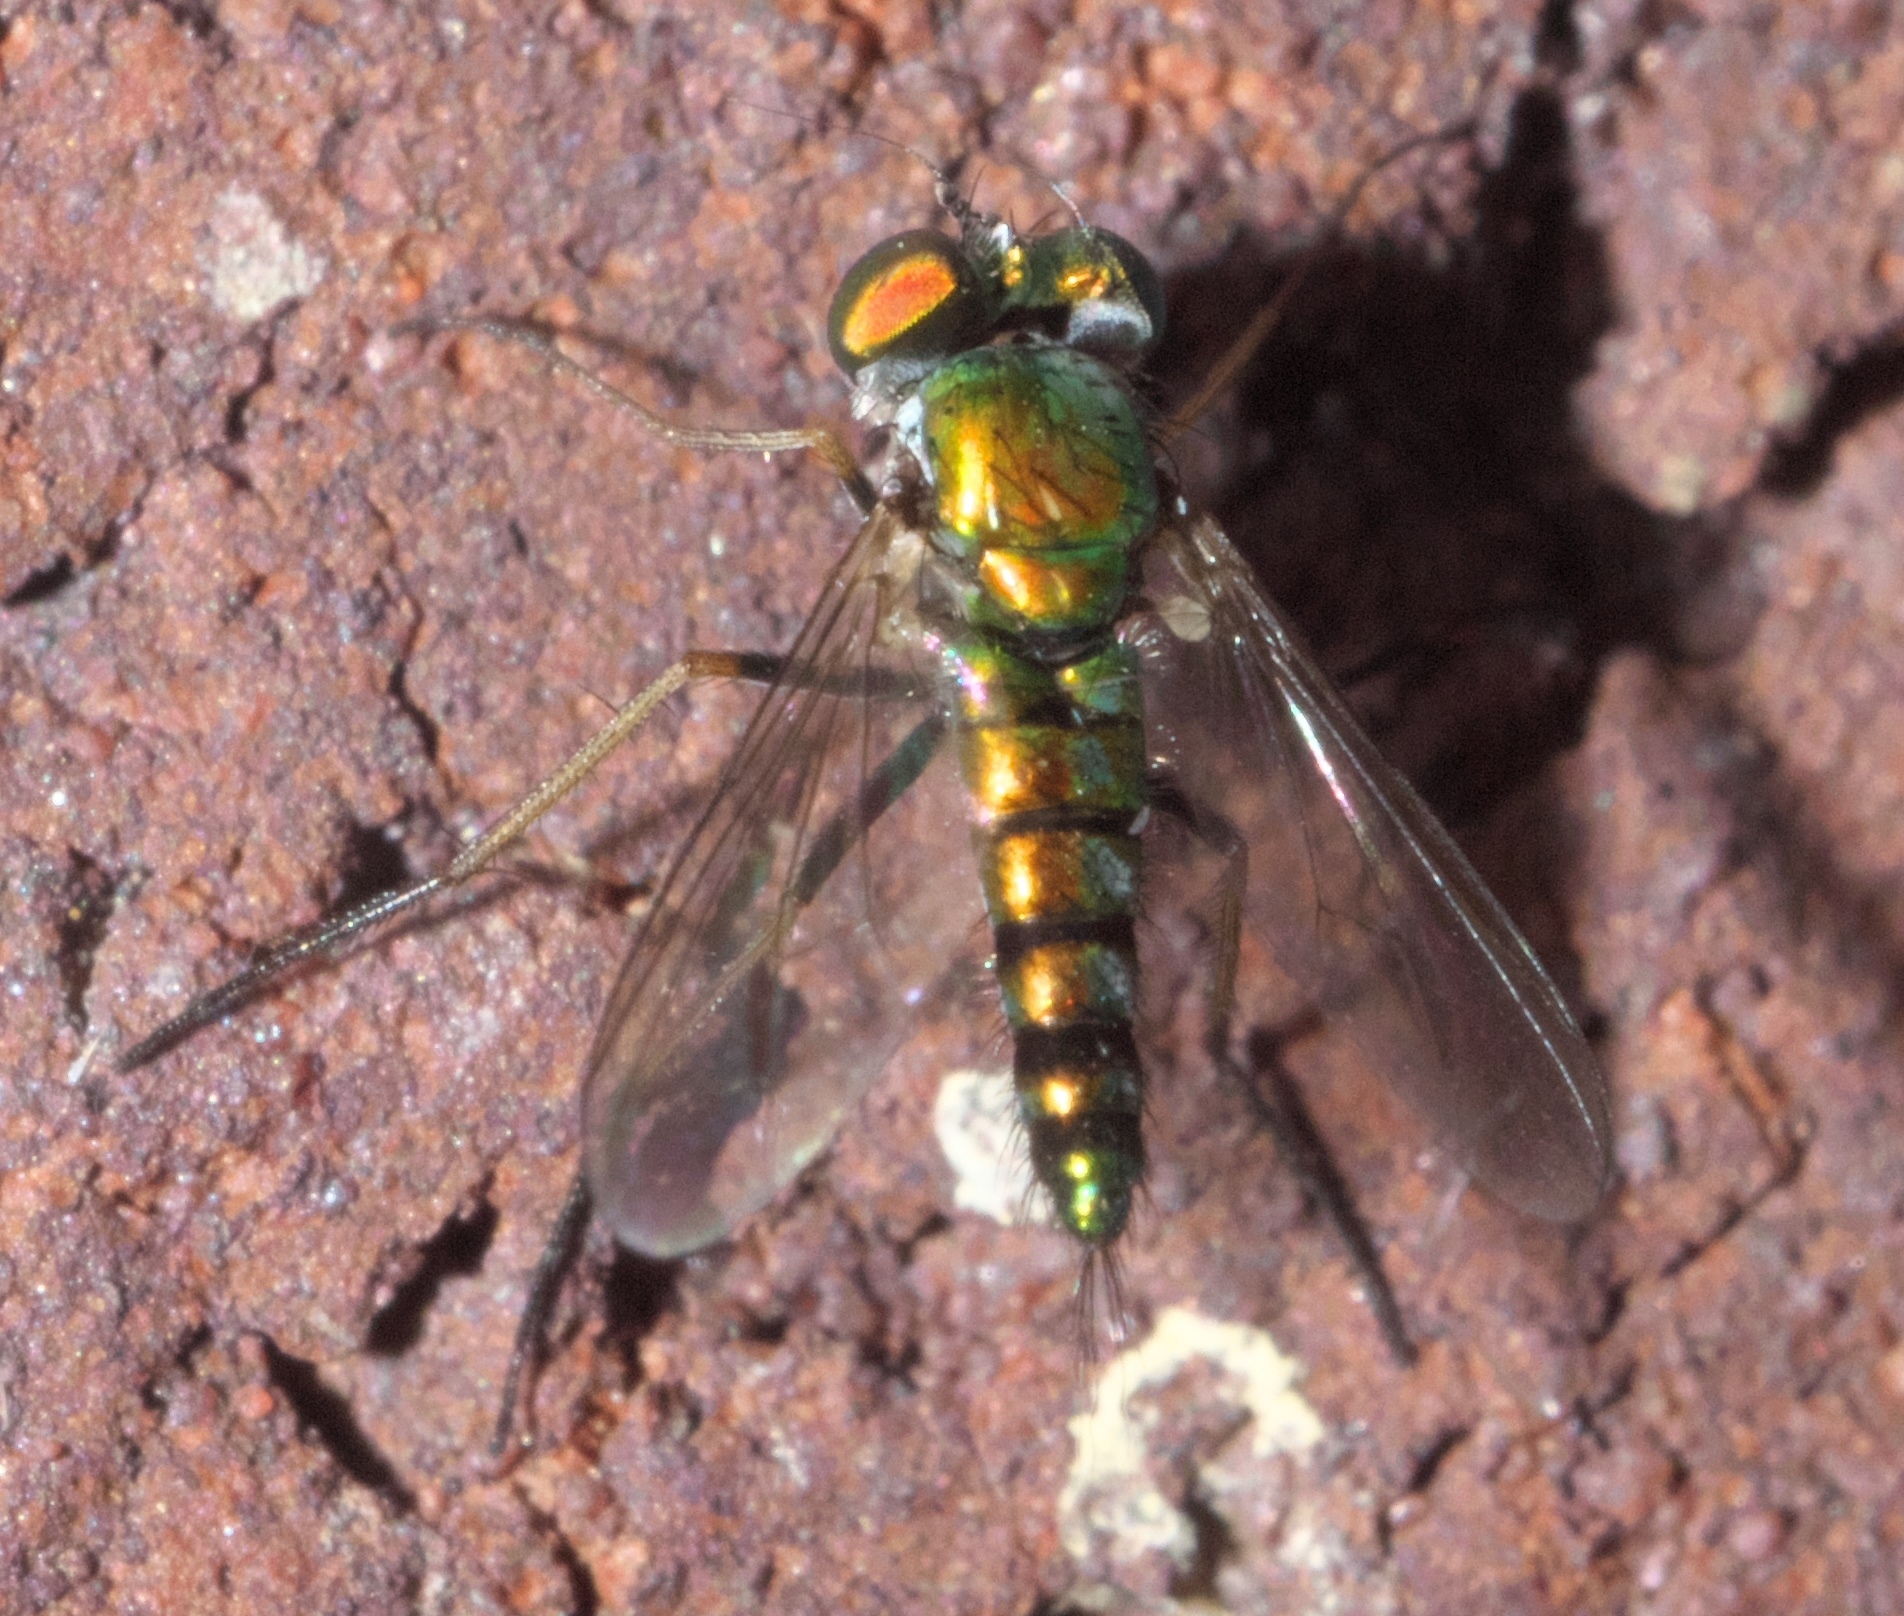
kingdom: Animalia
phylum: Arthropoda
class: Insecta
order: Diptera
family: Dolichopodidae
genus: Condylostylus
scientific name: Condylostylus caudatus
